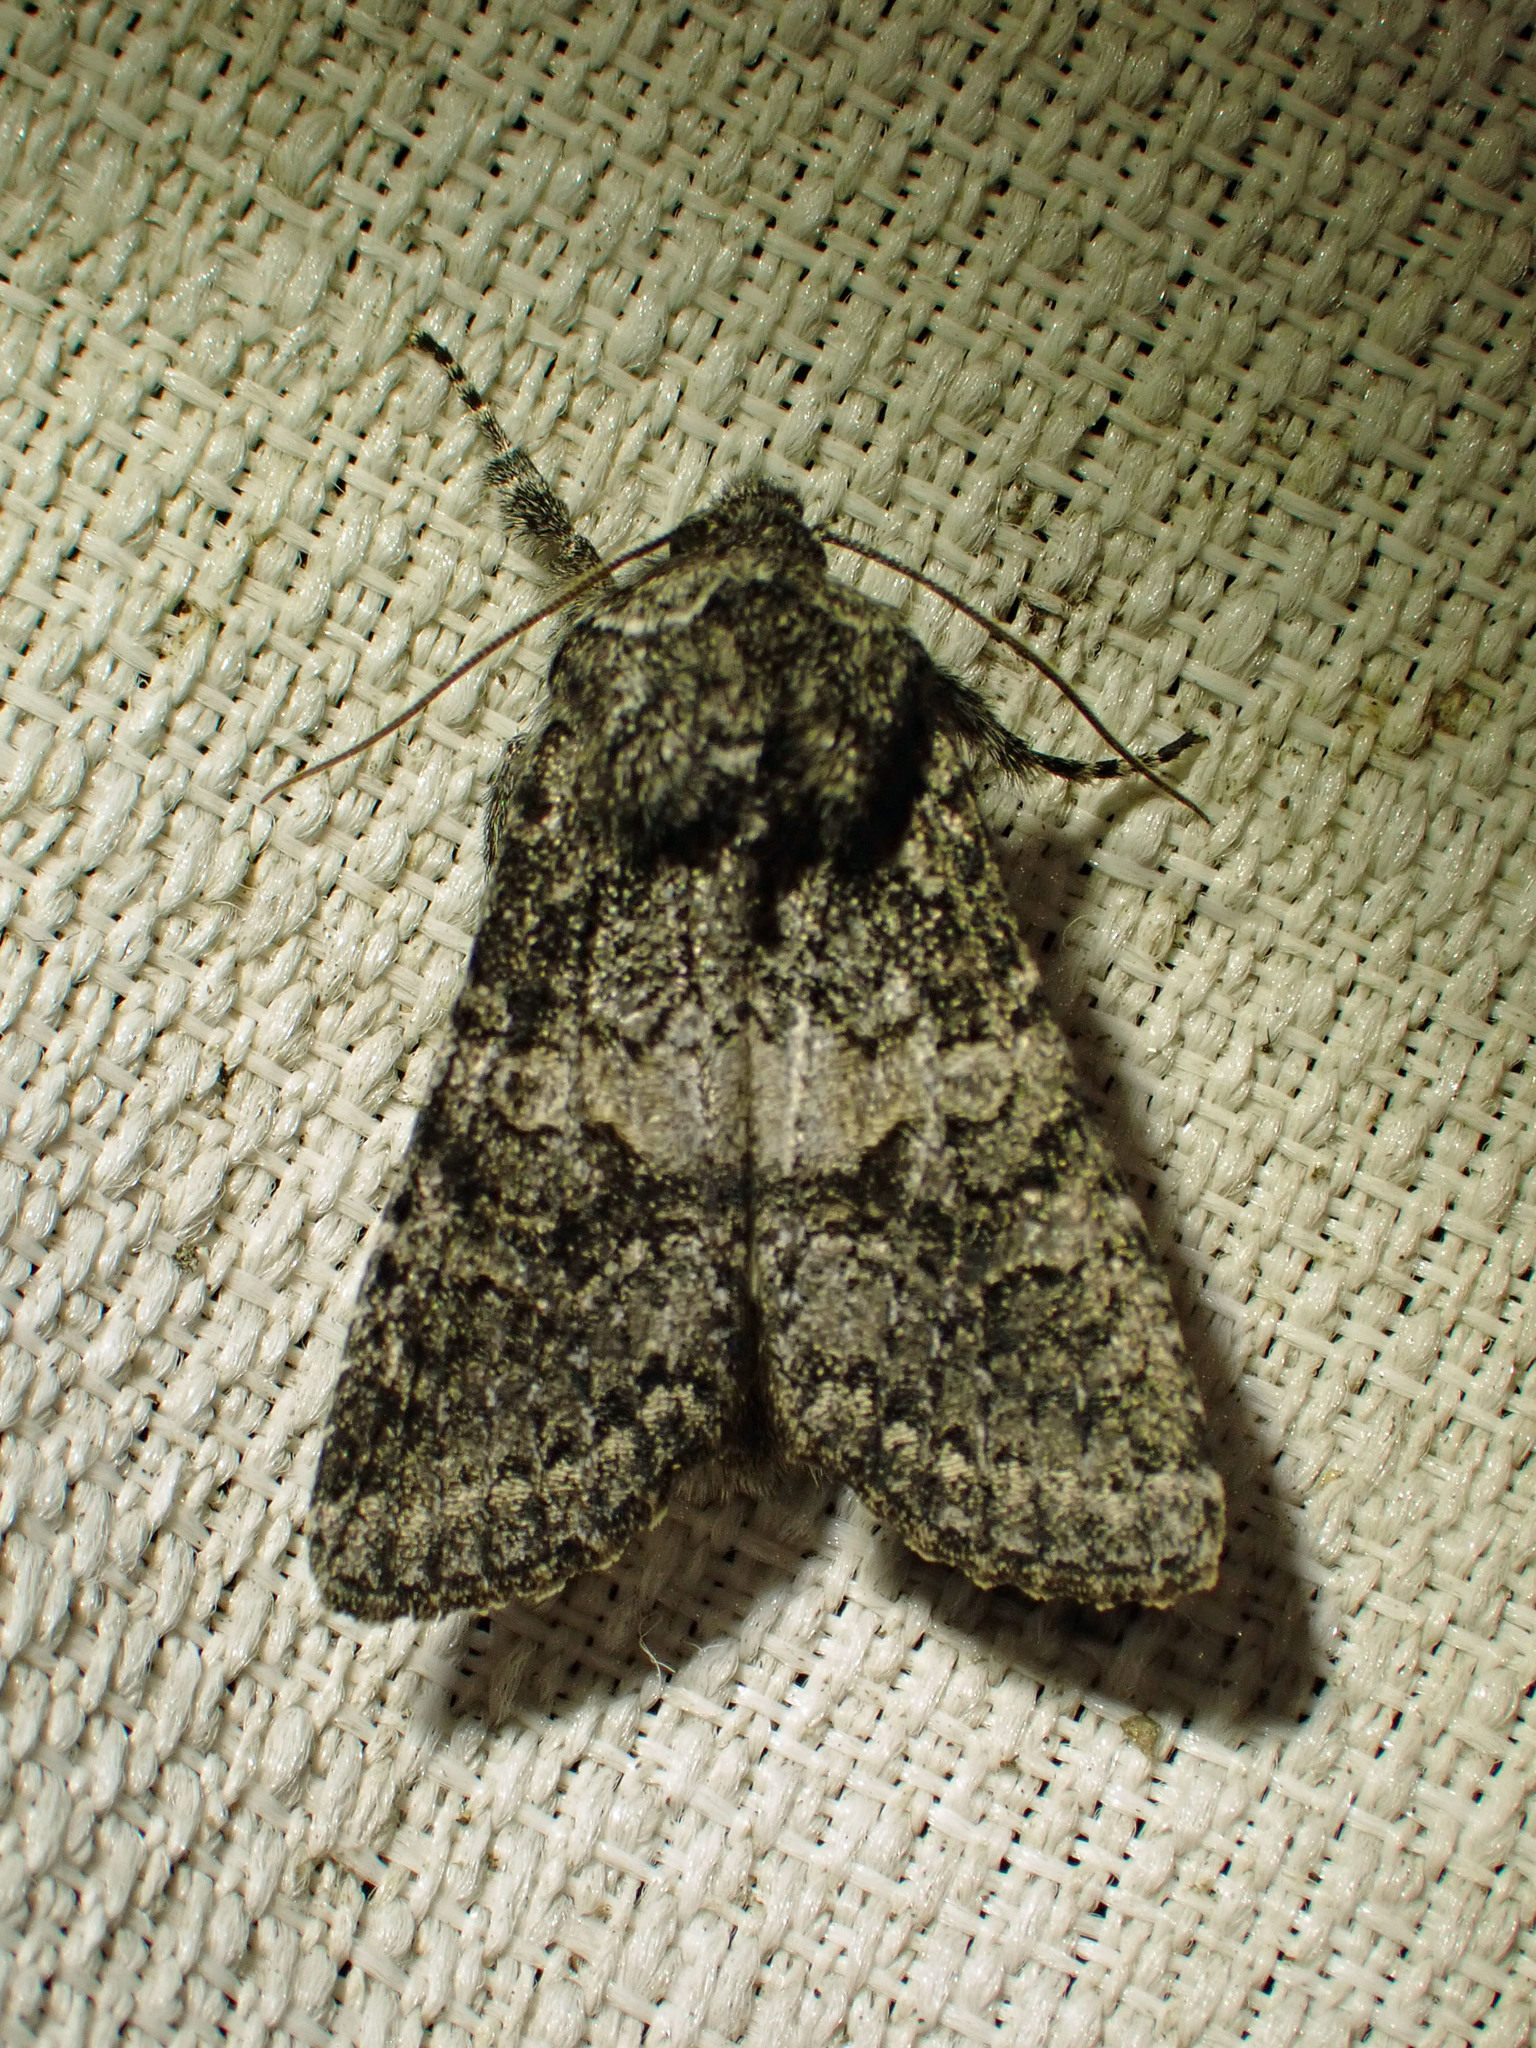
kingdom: Animalia
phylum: Arthropoda
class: Insecta
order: Lepidoptera
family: Noctuidae
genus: Egira
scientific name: Egira dolosa
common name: Lined black aspen cat.
